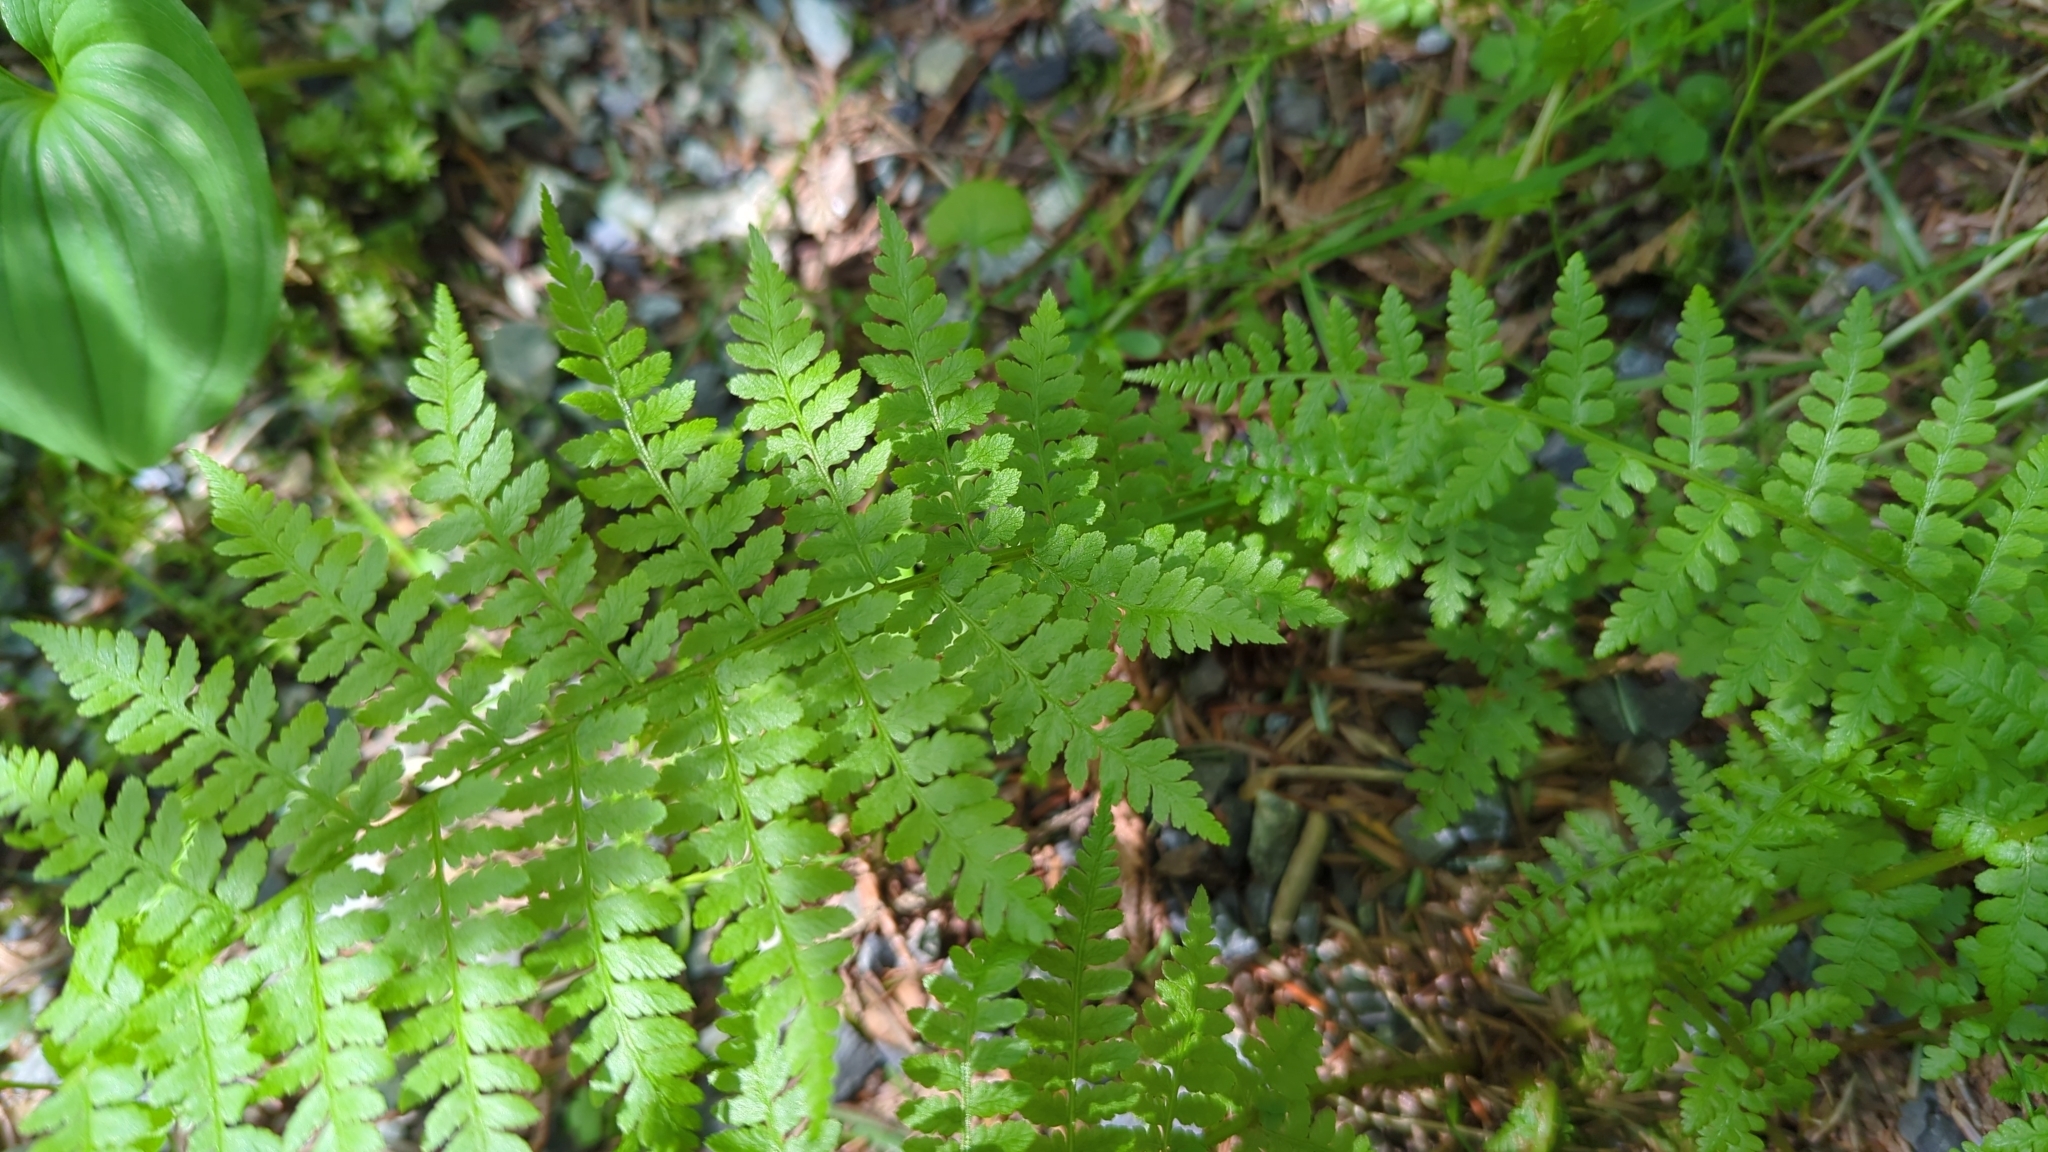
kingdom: Plantae
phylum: Tracheophyta
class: Polypodiopsida
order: Polypodiales
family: Athyriaceae
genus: Athyrium
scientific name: Athyrium filix-femina
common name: Lady fern
